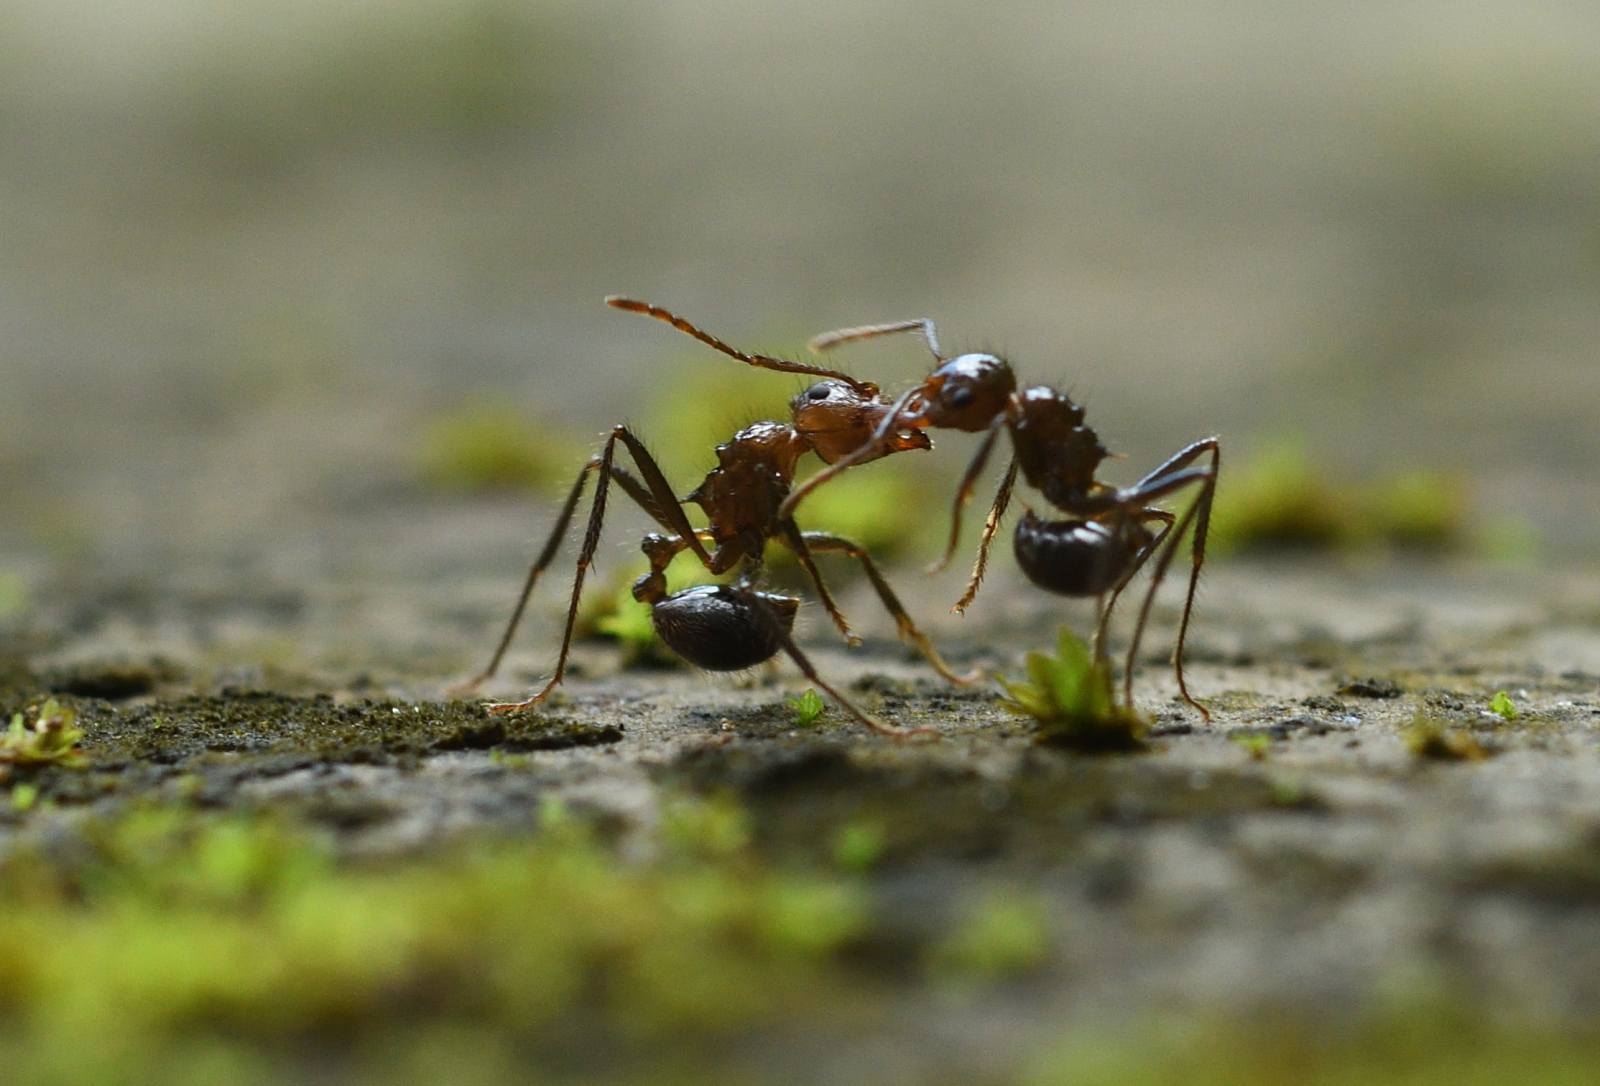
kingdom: Animalia
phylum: Arthropoda
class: Insecta
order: Hymenoptera
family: Formicidae
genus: Myrmicaria
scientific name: Myrmicaria brunnea
